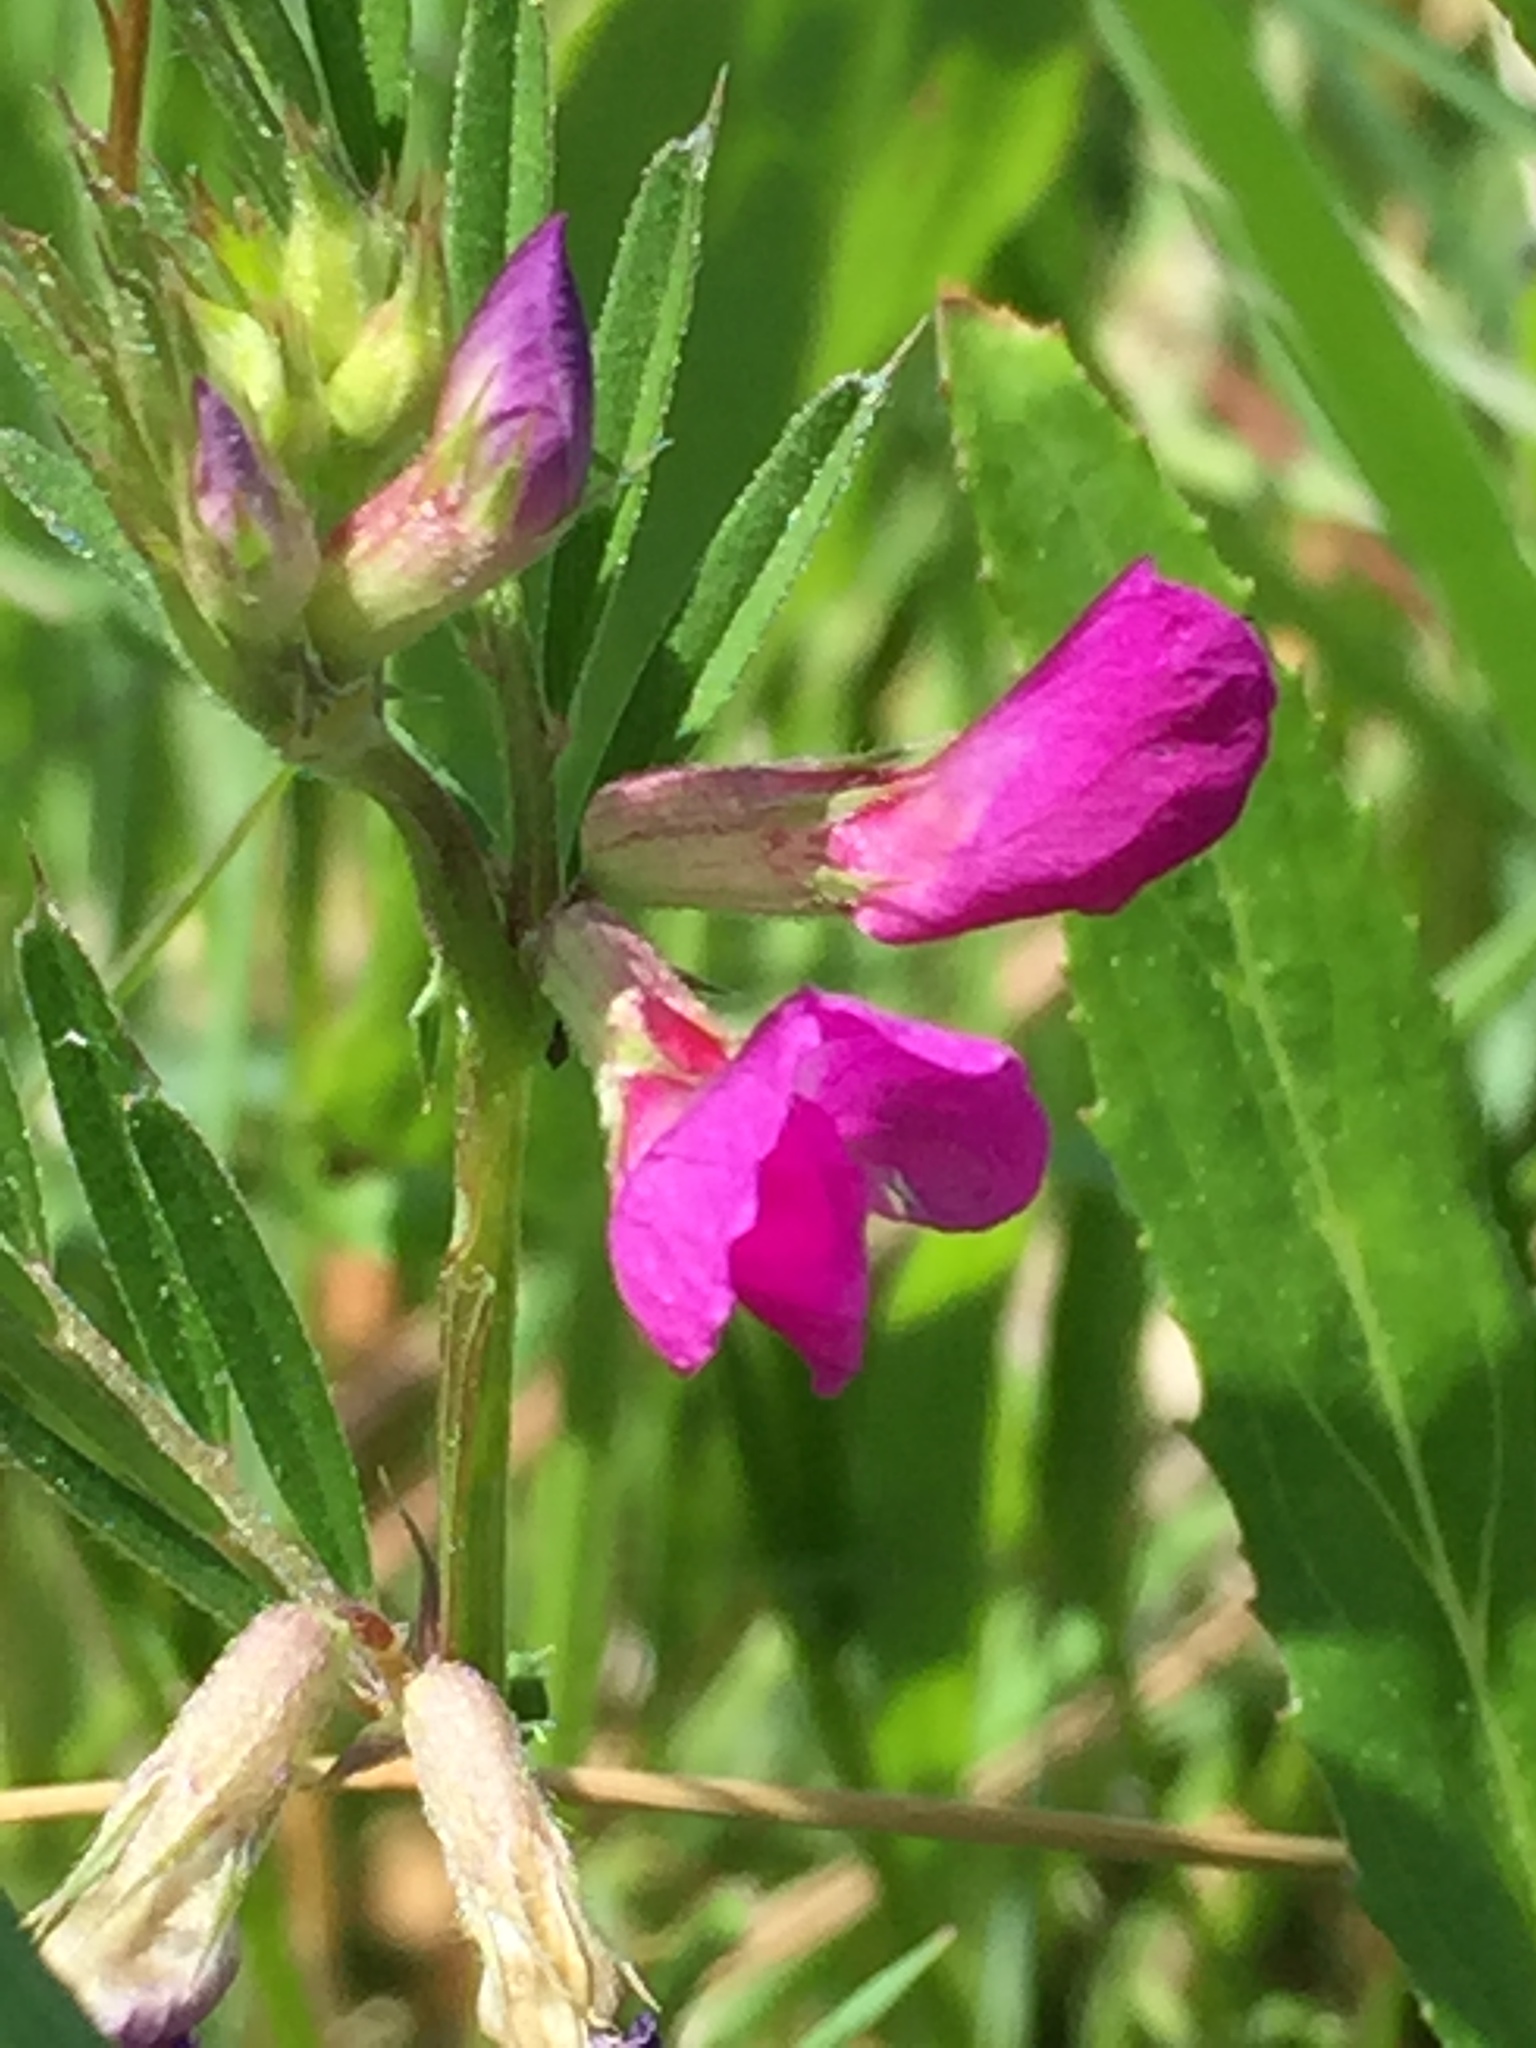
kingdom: Plantae
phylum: Tracheophyta
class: Magnoliopsida
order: Fabales
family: Fabaceae
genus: Vicia
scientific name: Vicia sativa
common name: Garden vetch
